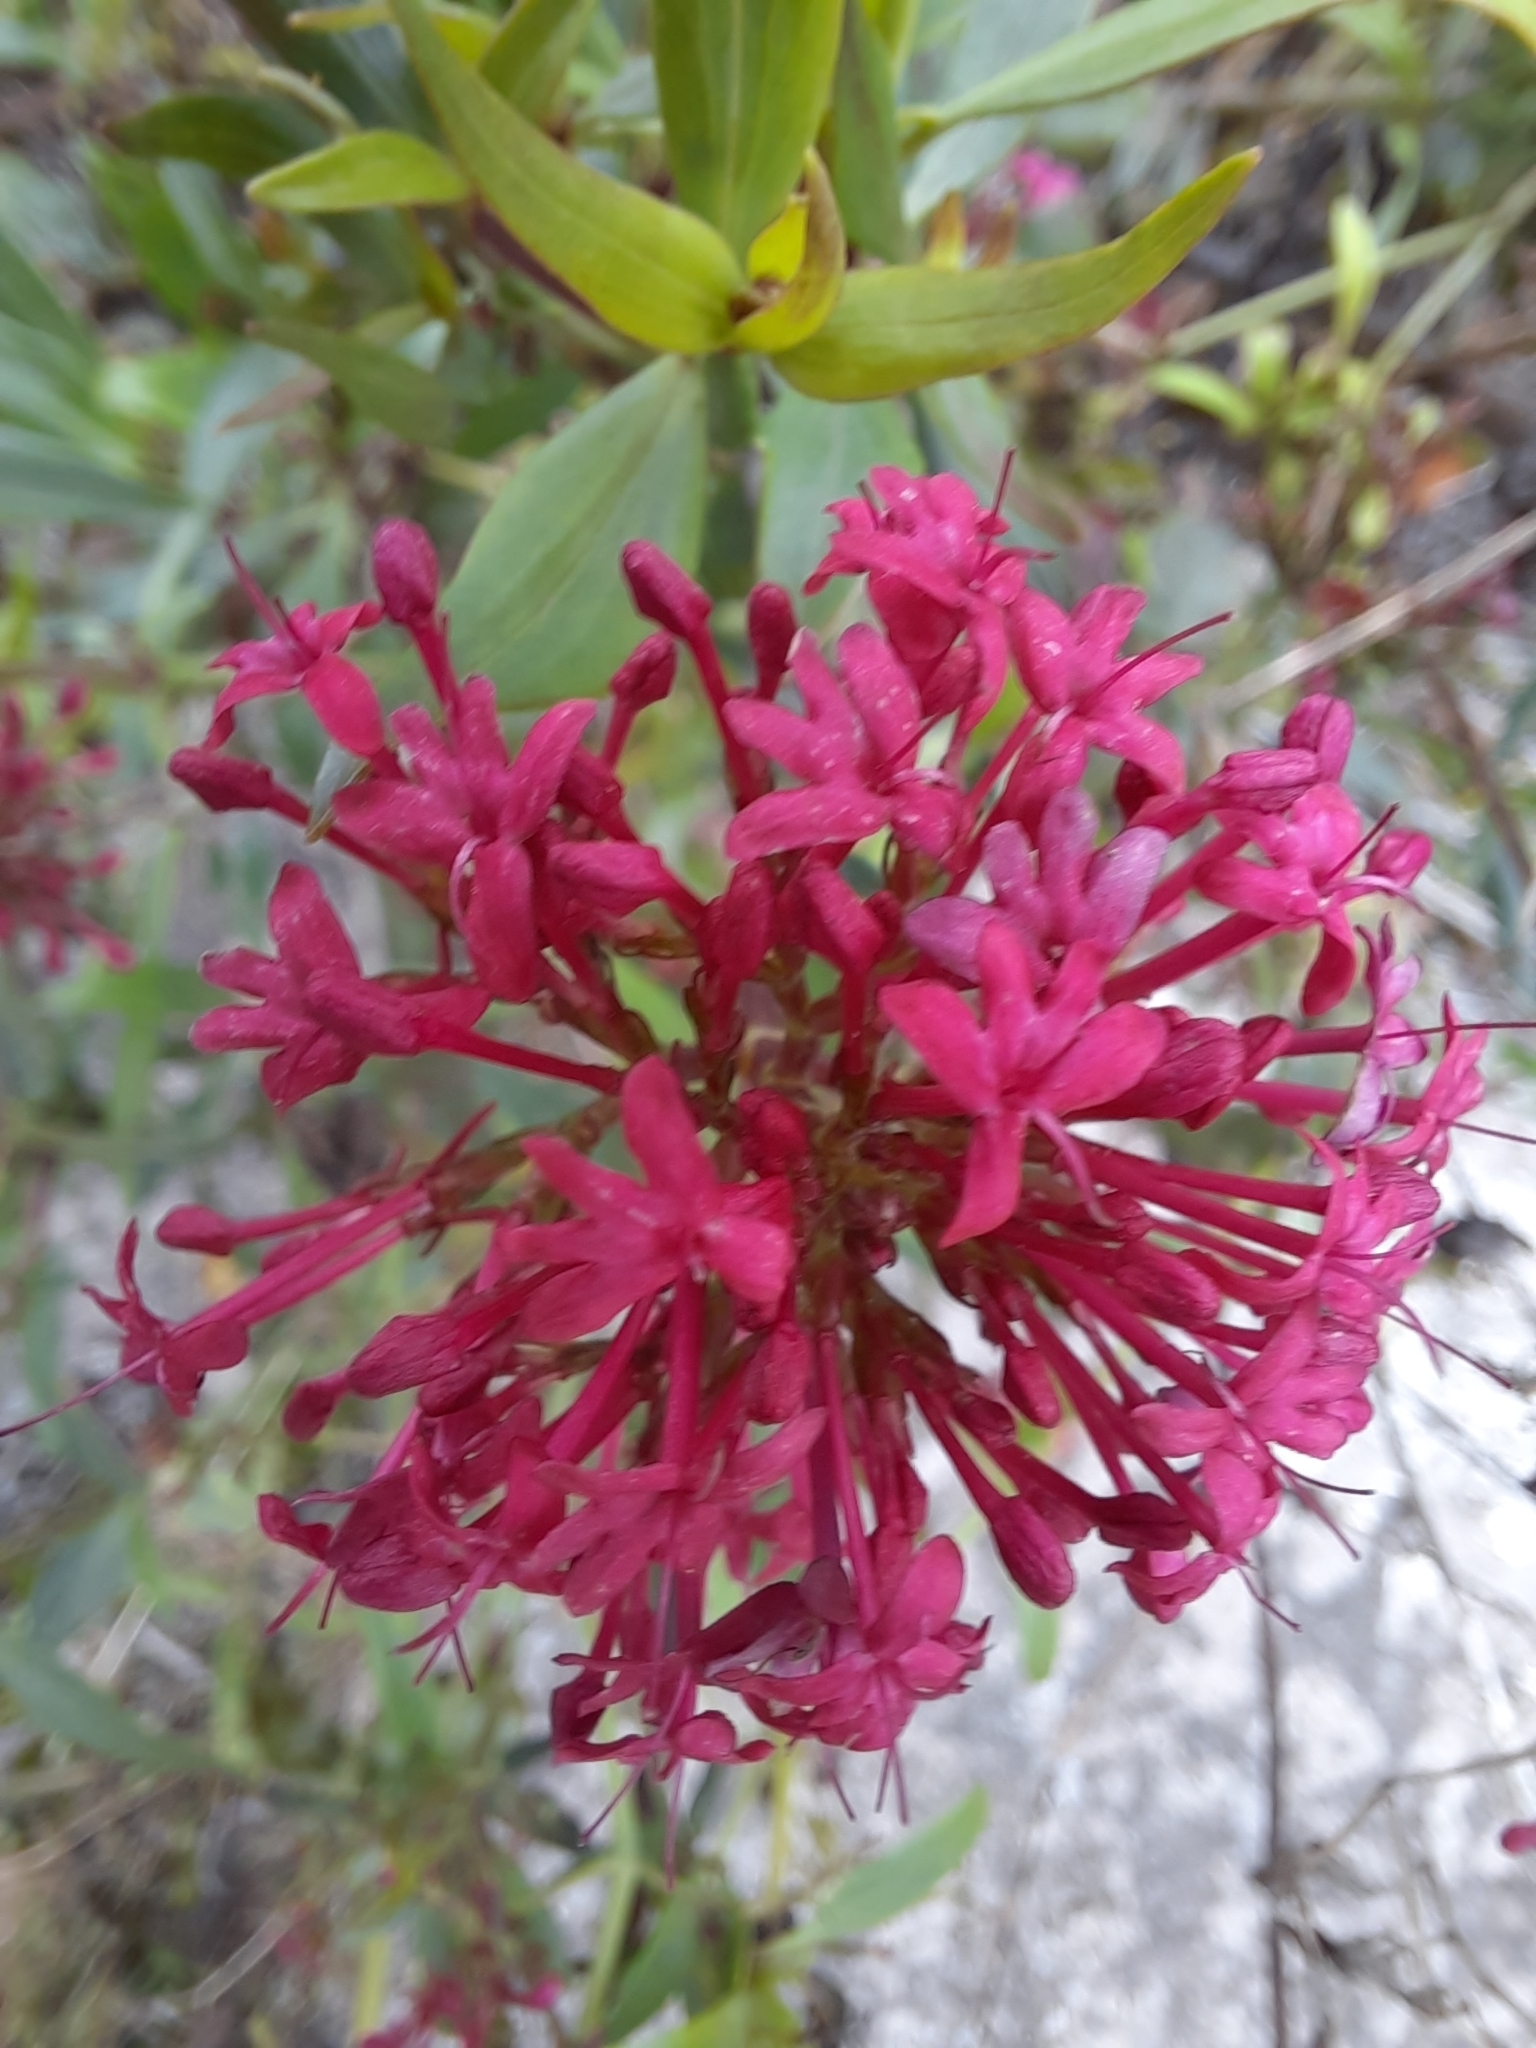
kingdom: Plantae
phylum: Tracheophyta
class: Magnoliopsida
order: Dipsacales
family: Caprifoliaceae
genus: Centranthus
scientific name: Centranthus ruber
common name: Red valerian
